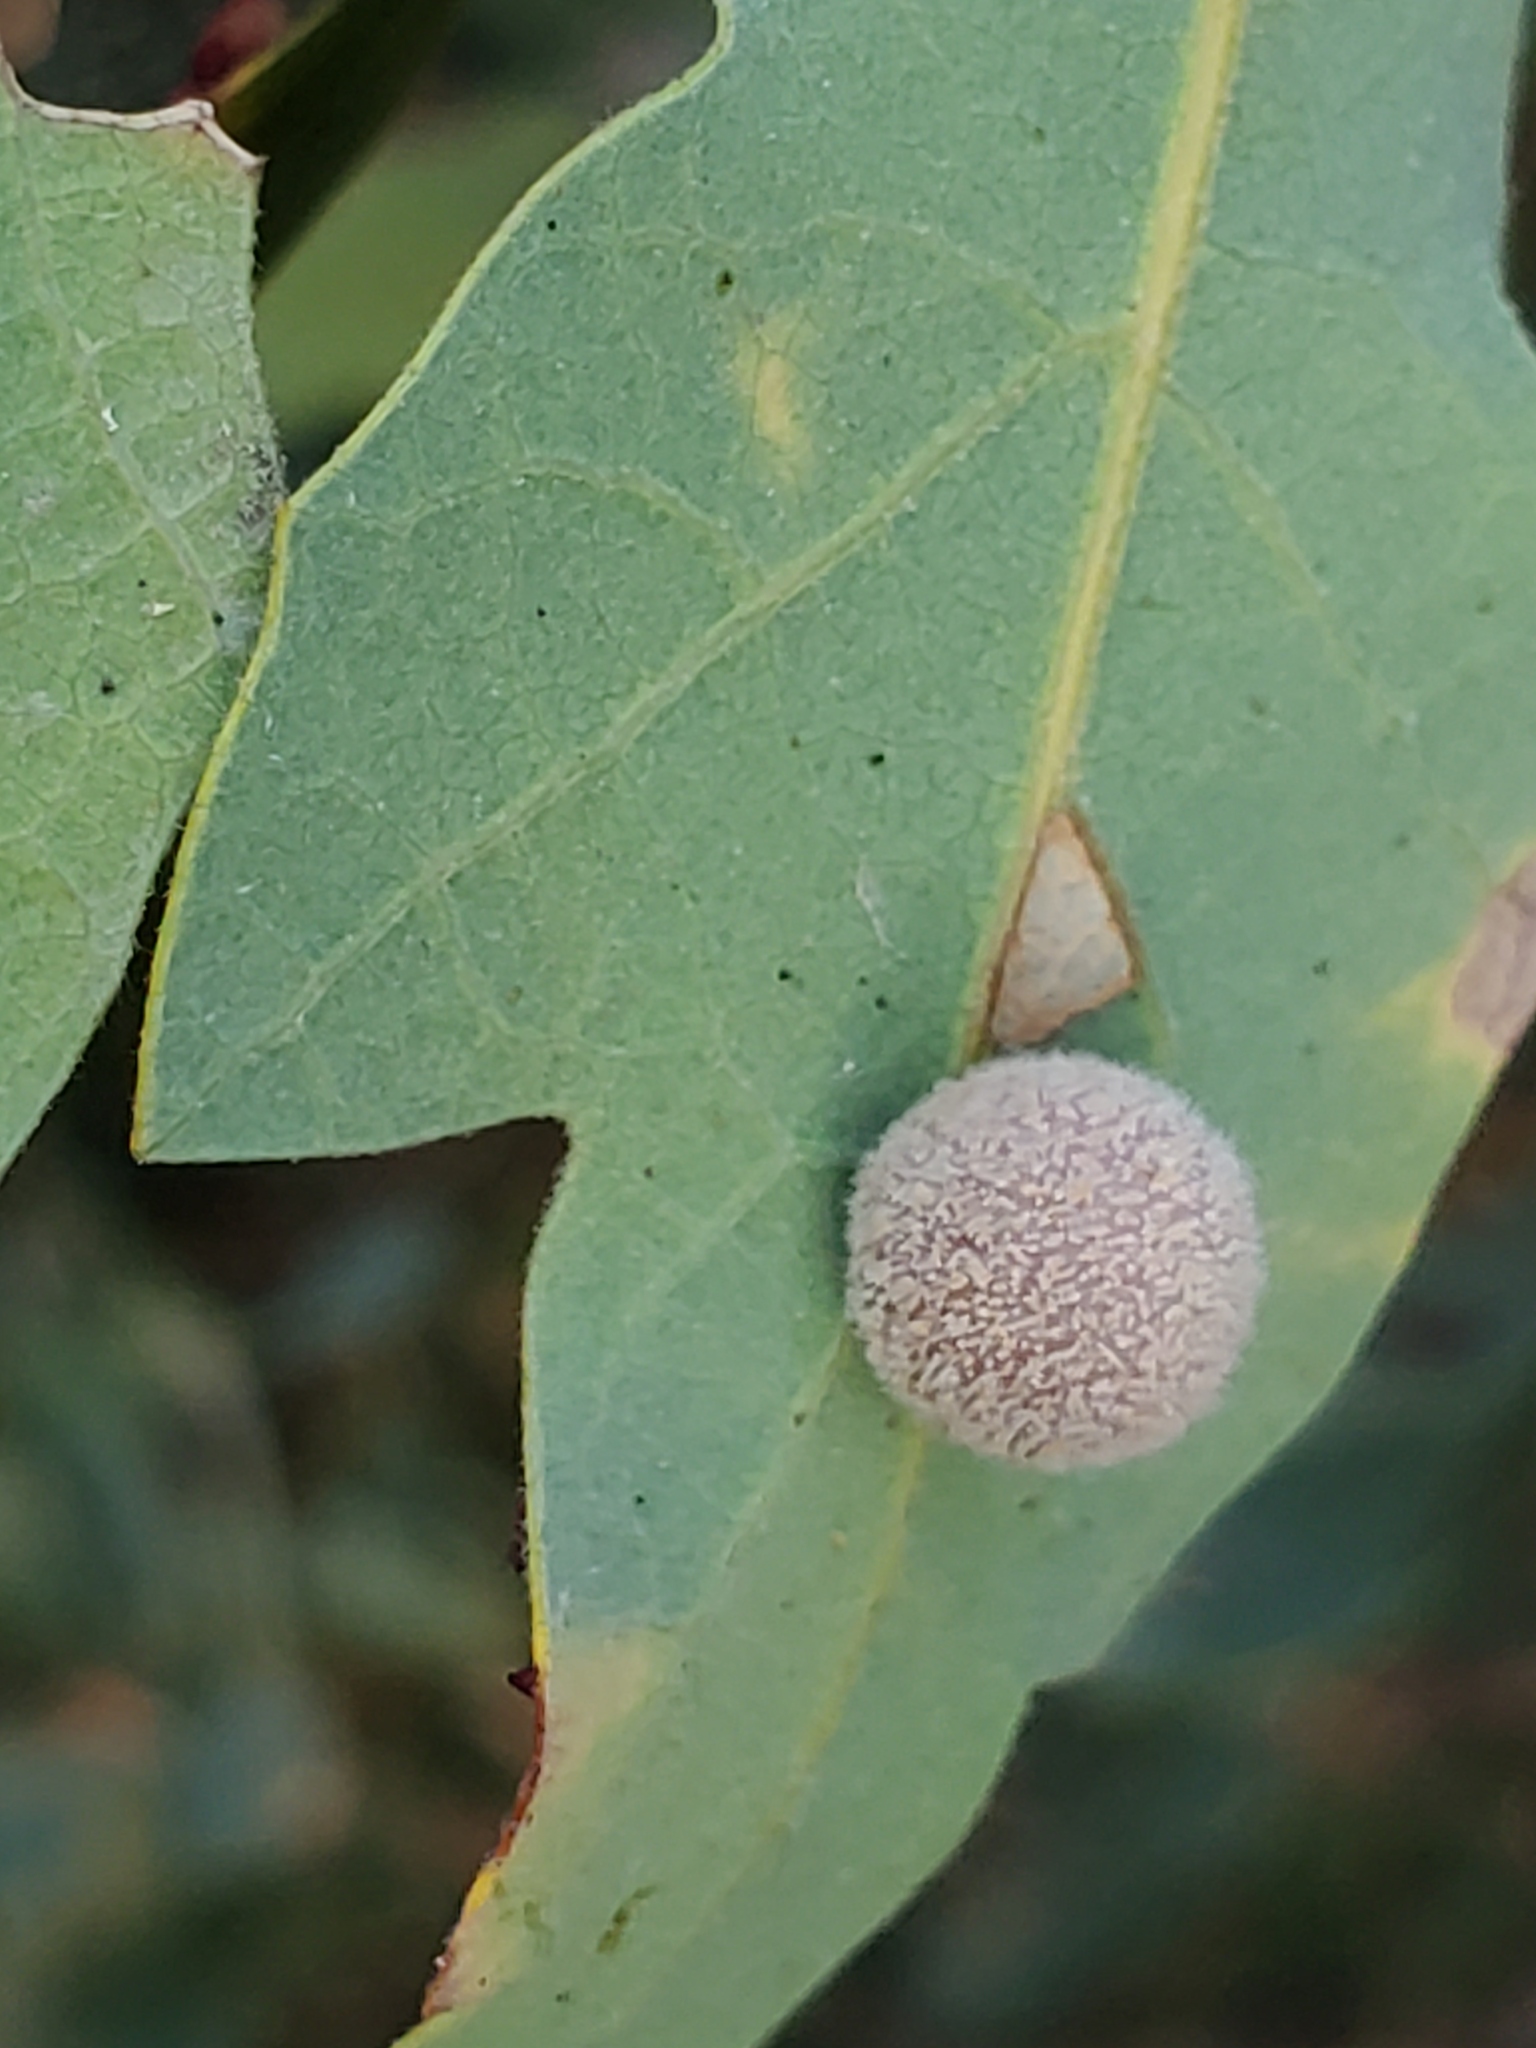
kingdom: Animalia
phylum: Arthropoda
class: Insecta
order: Hymenoptera
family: Cynipidae
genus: Cynips
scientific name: Cynips
